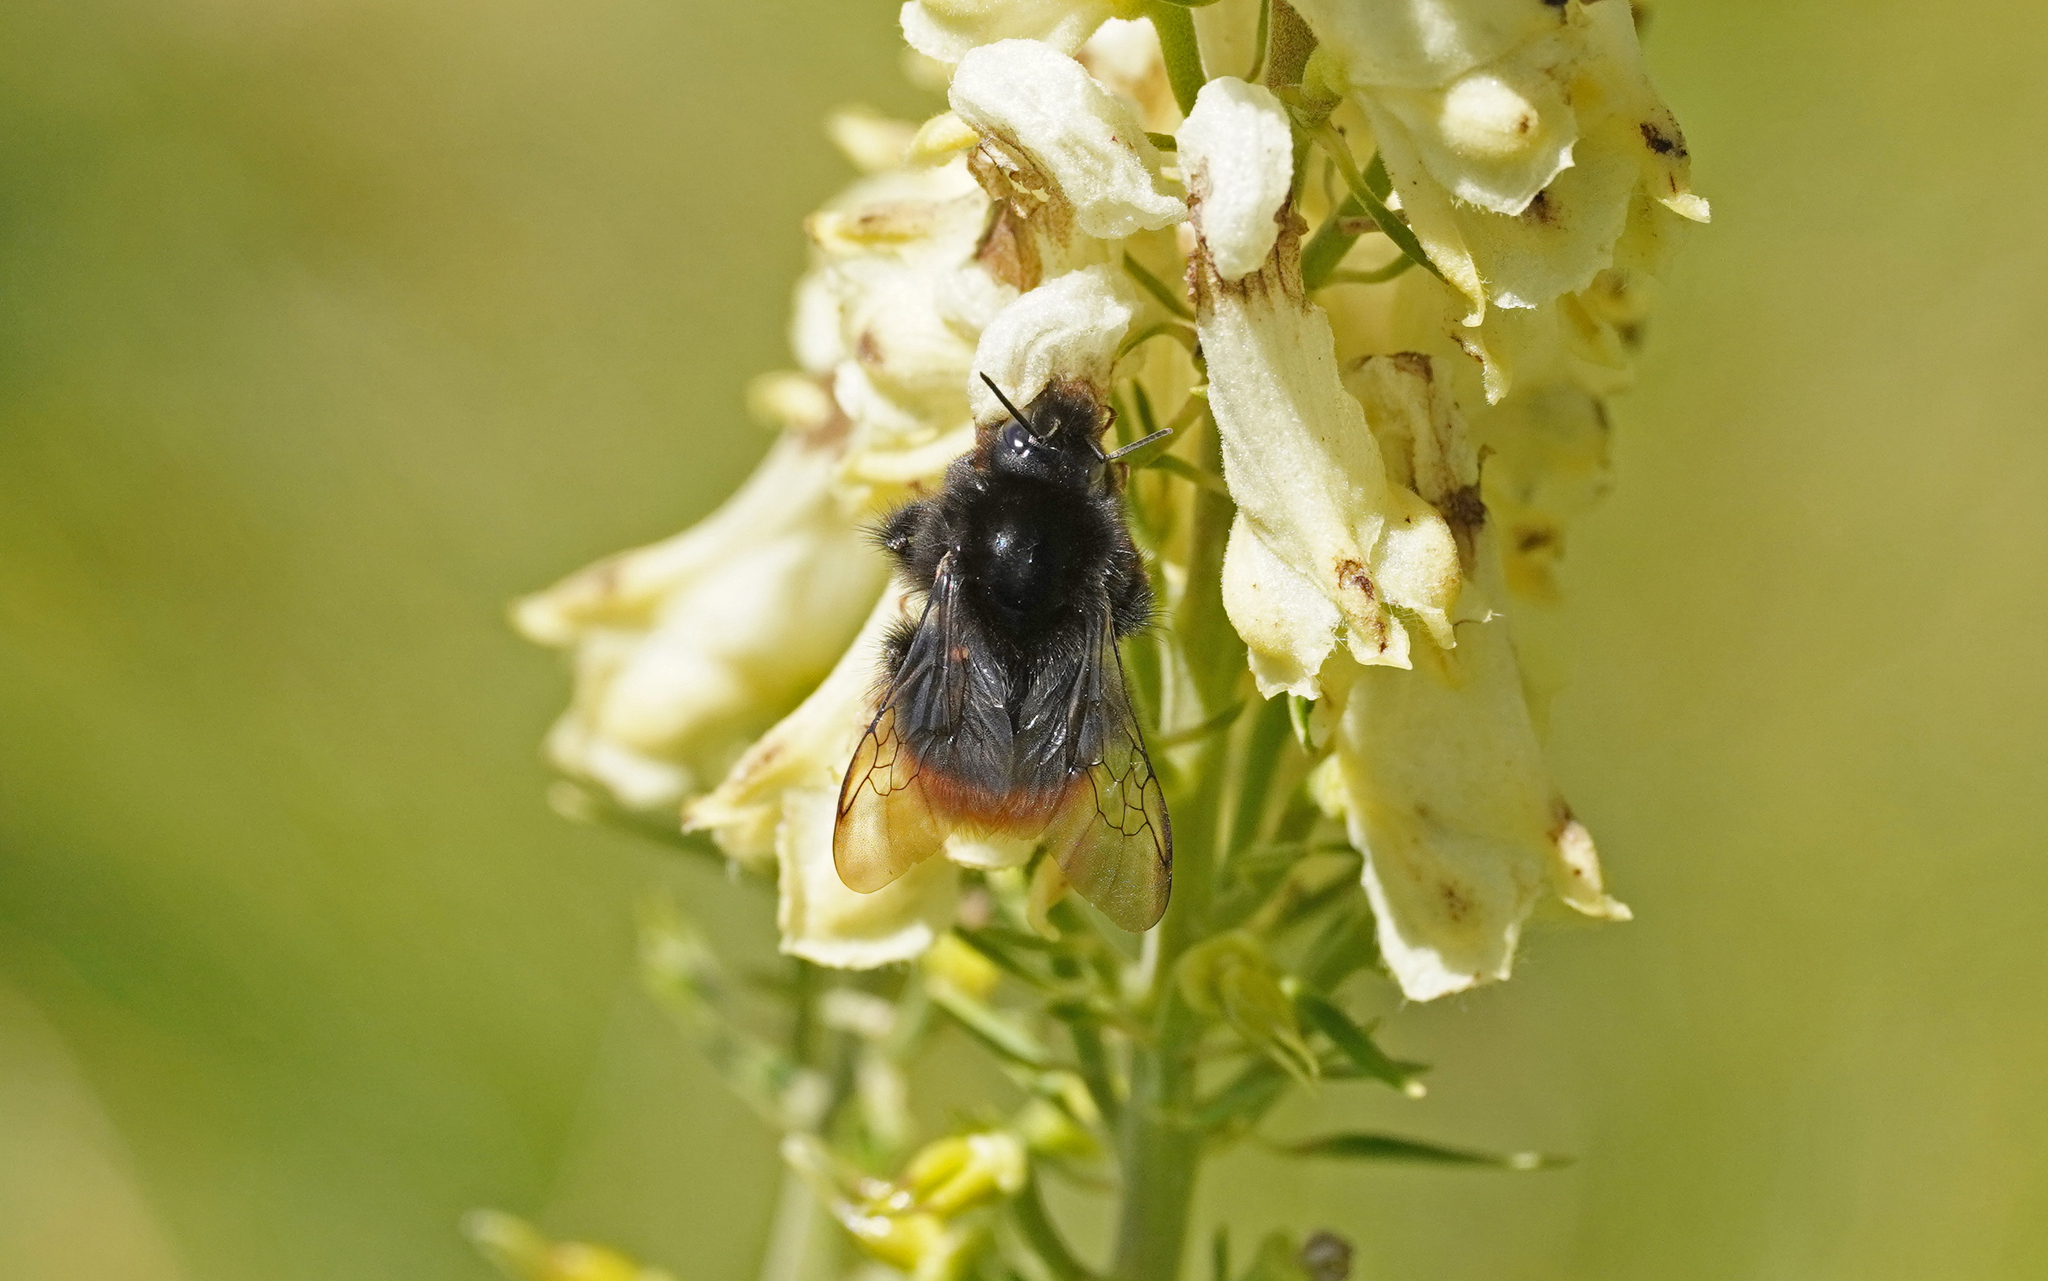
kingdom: Animalia
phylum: Arthropoda
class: Insecta
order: Hymenoptera
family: Apidae
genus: Bombus
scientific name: Bombus wurflenii
